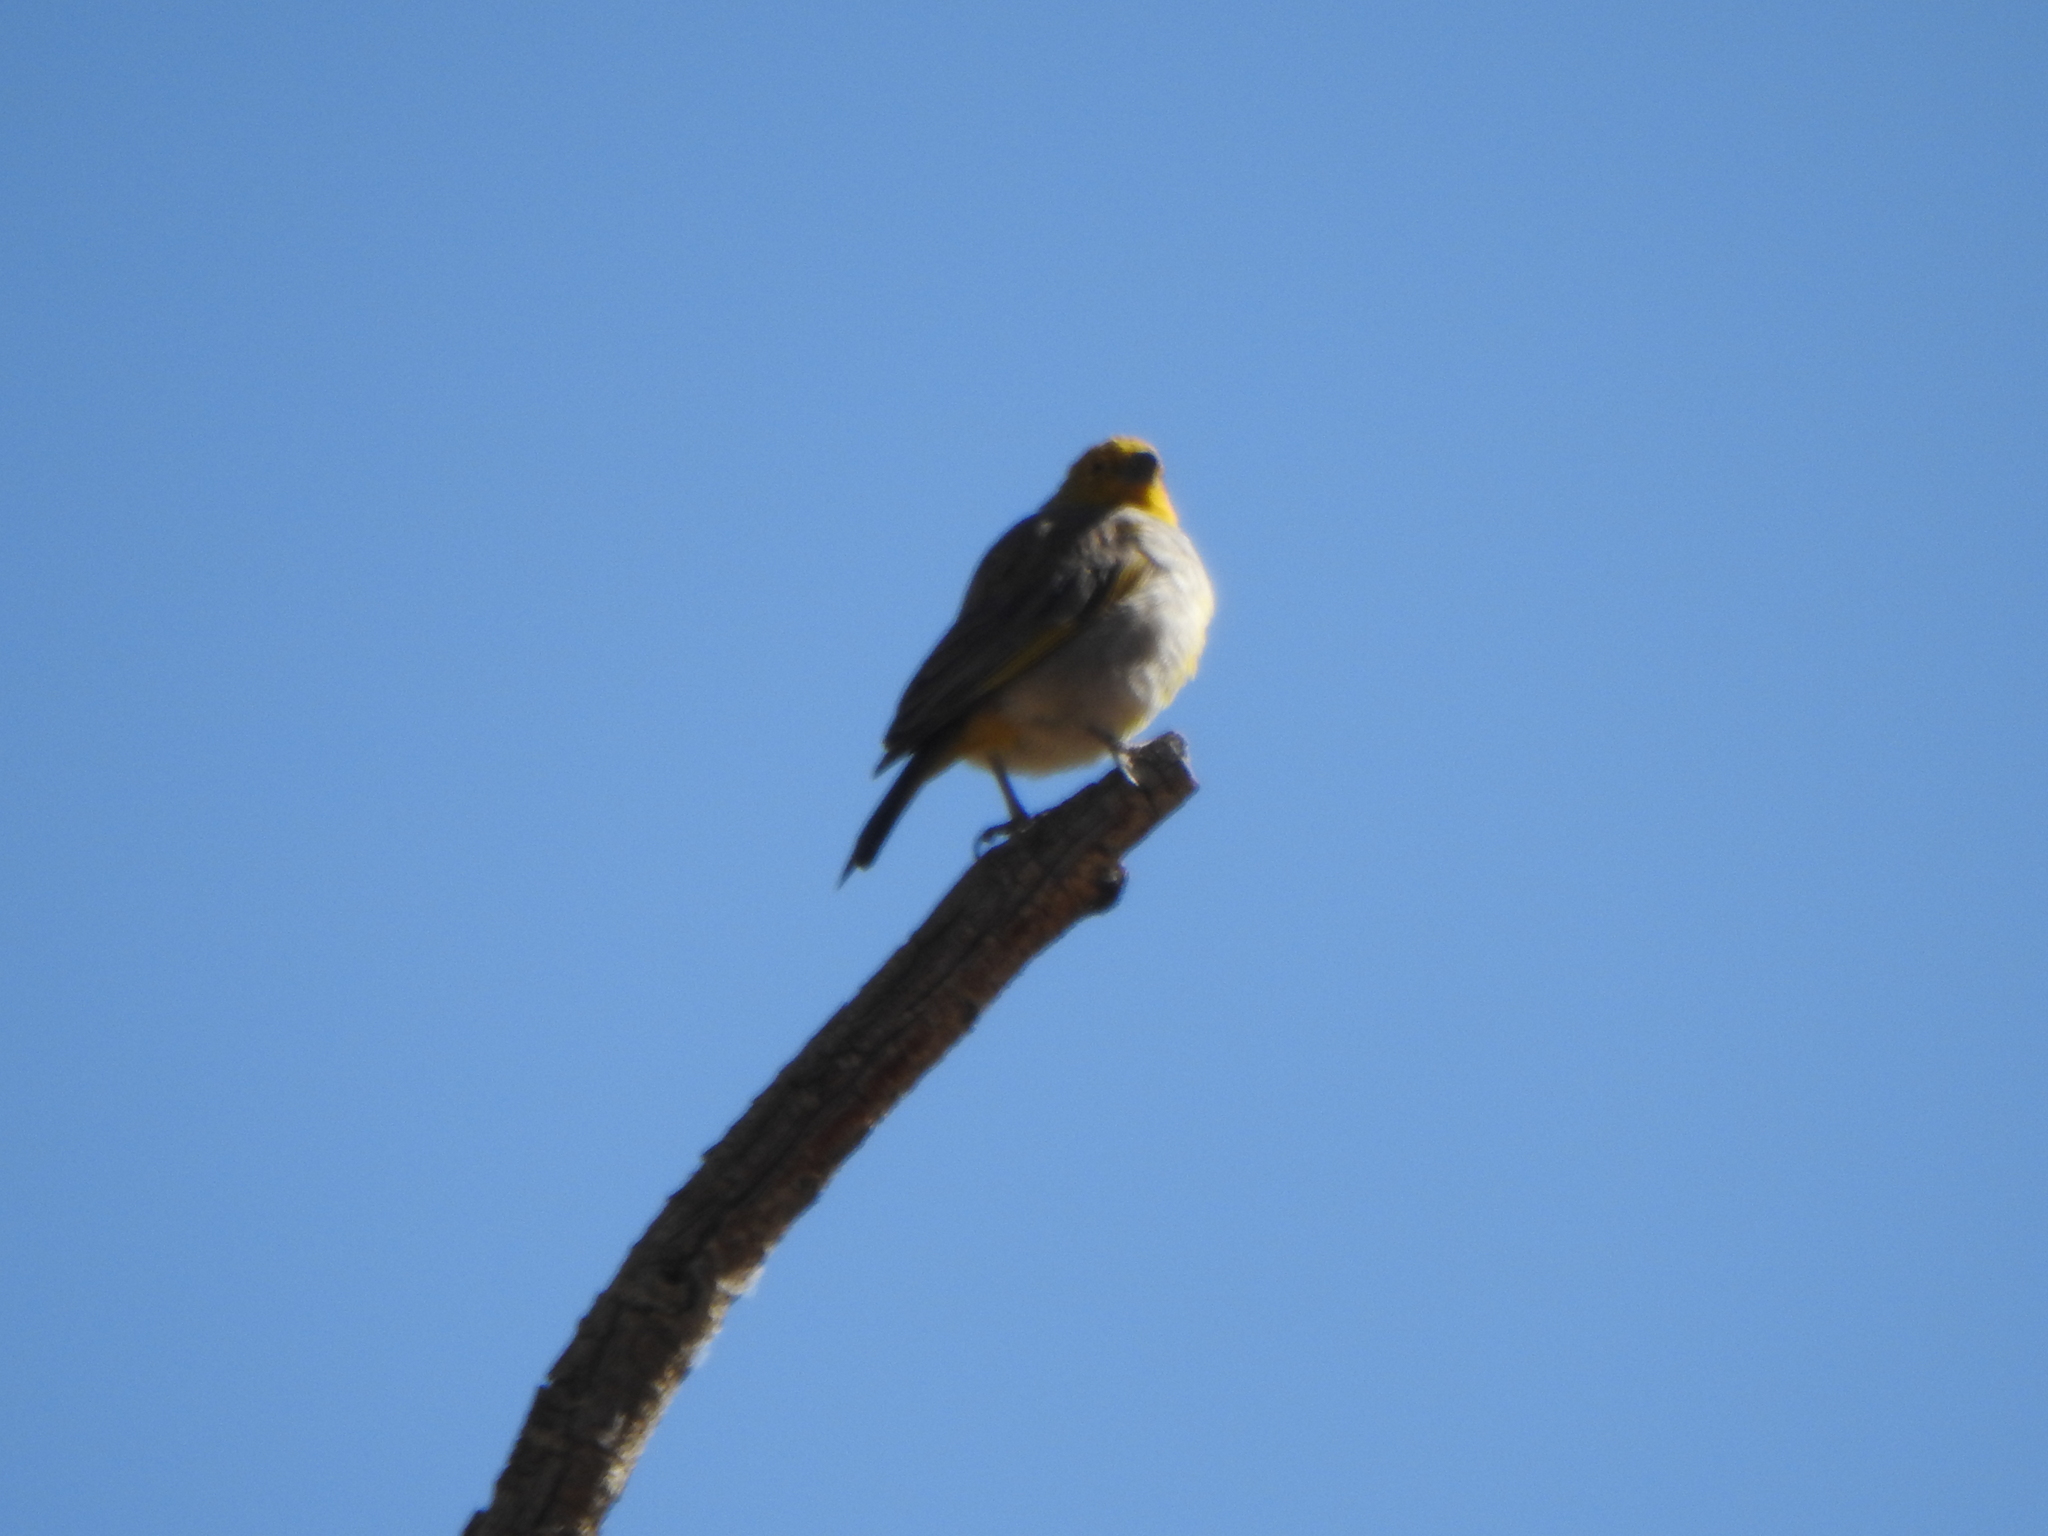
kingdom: Animalia
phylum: Chordata
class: Aves
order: Passeriformes
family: Thraupidae
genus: Sicalis
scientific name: Sicalis luteocephala
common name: Citron-headed yellow finch
